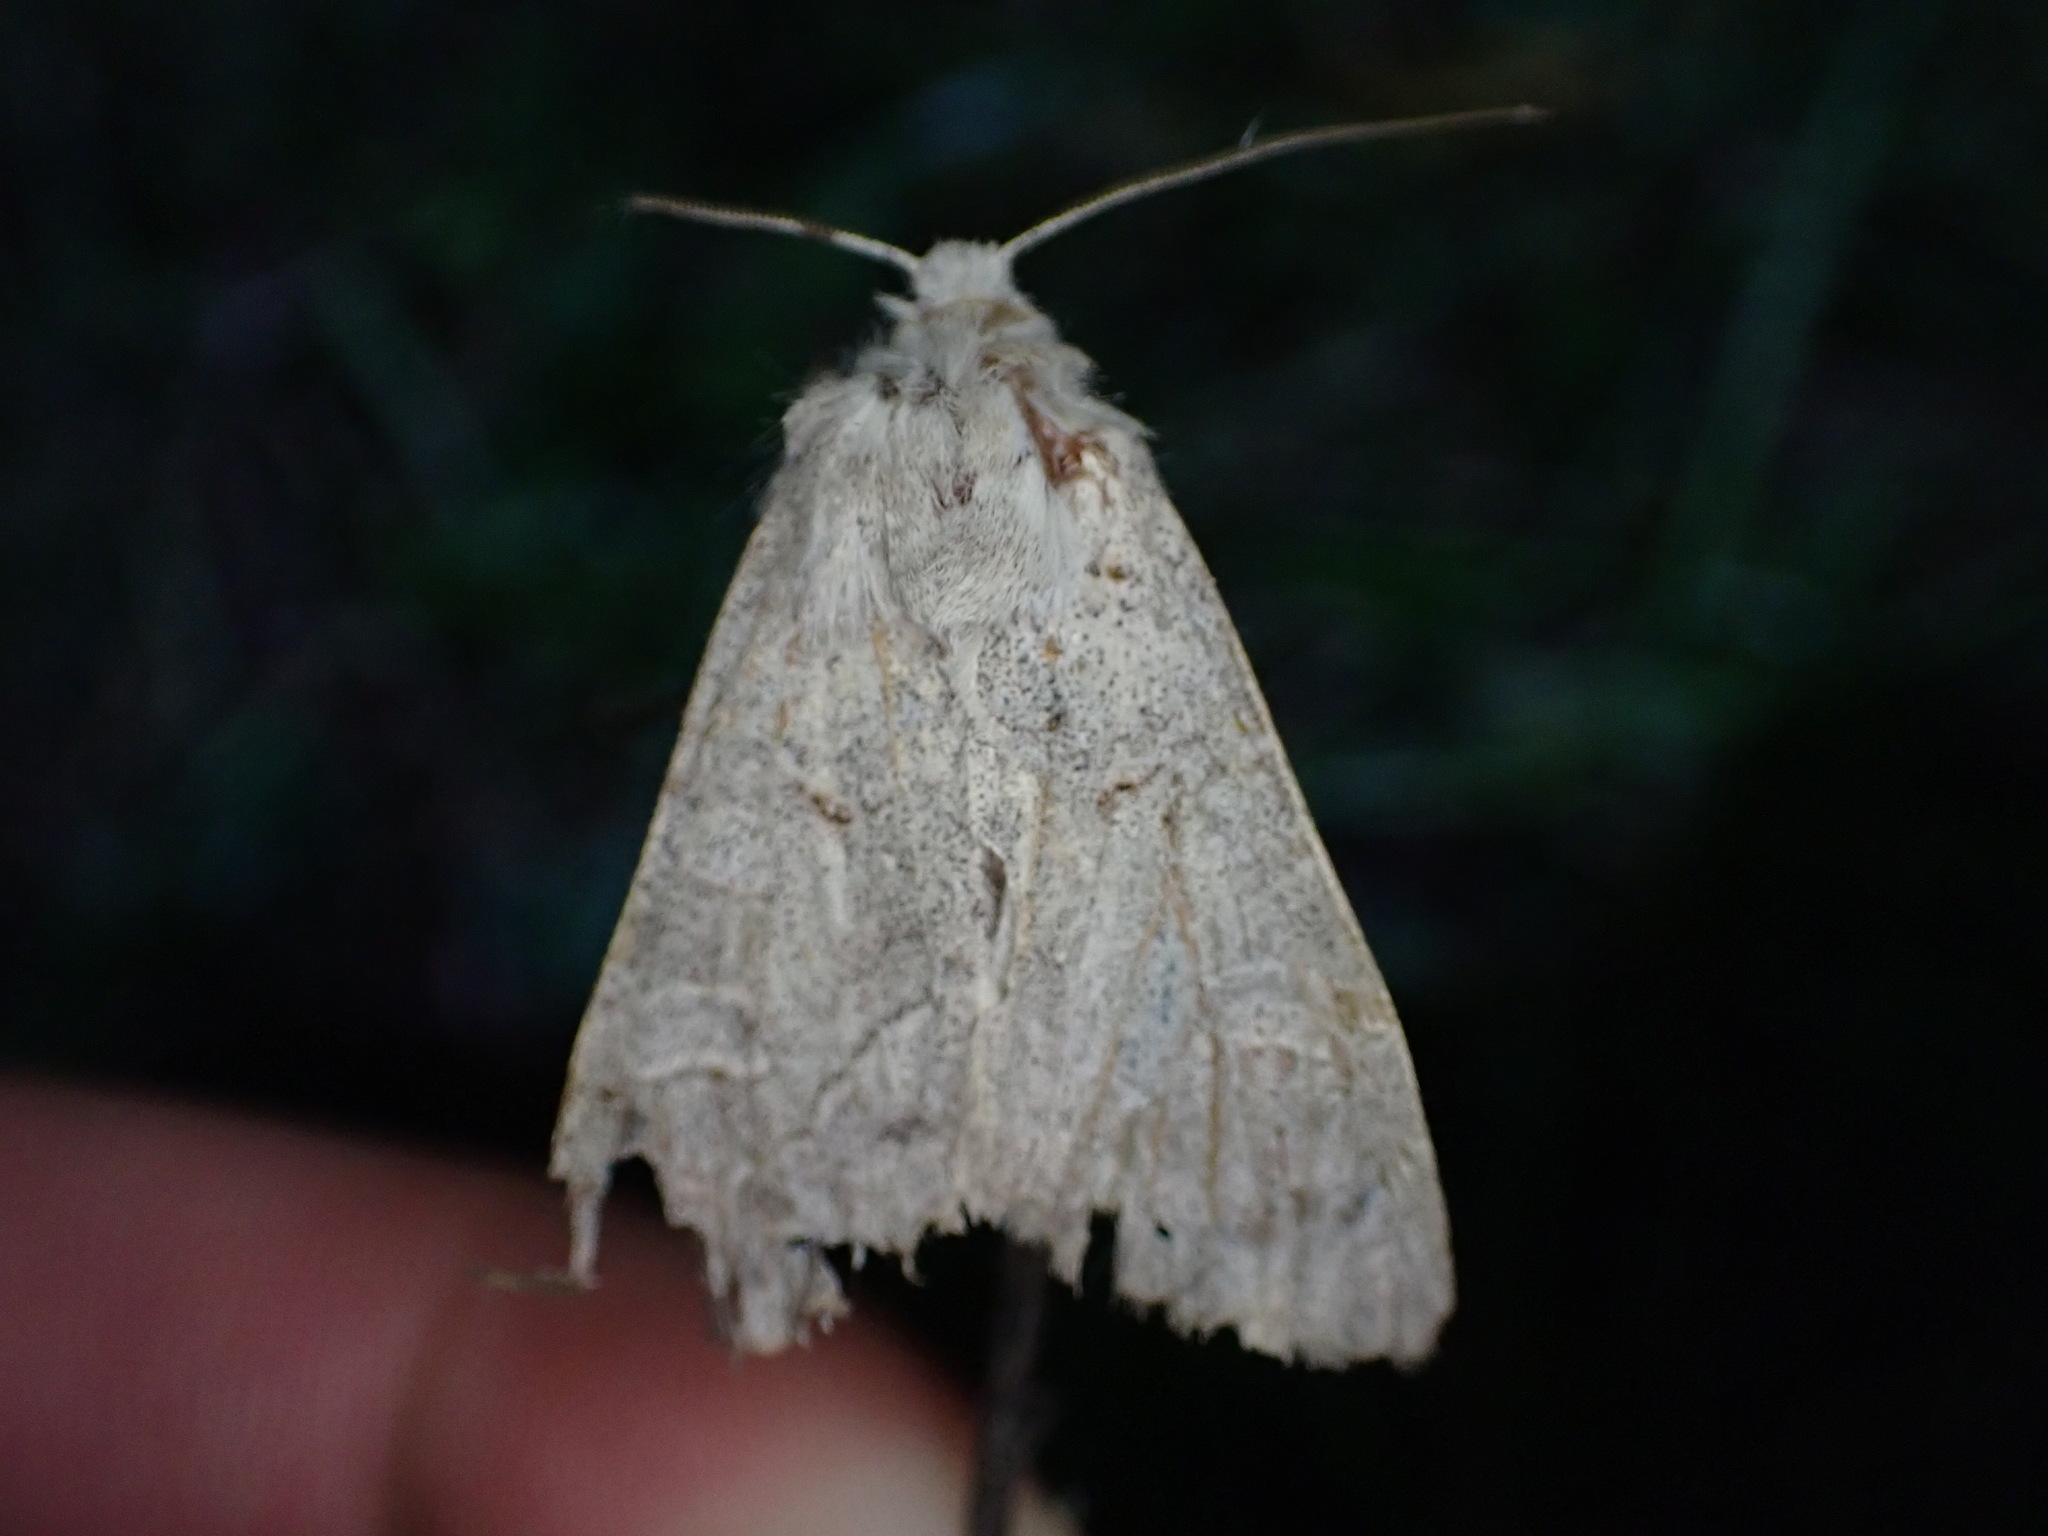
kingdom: Animalia
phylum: Arthropoda
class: Insecta
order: Lepidoptera
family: Noctuidae
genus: Ammoconia
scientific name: Ammoconia caecimacula
